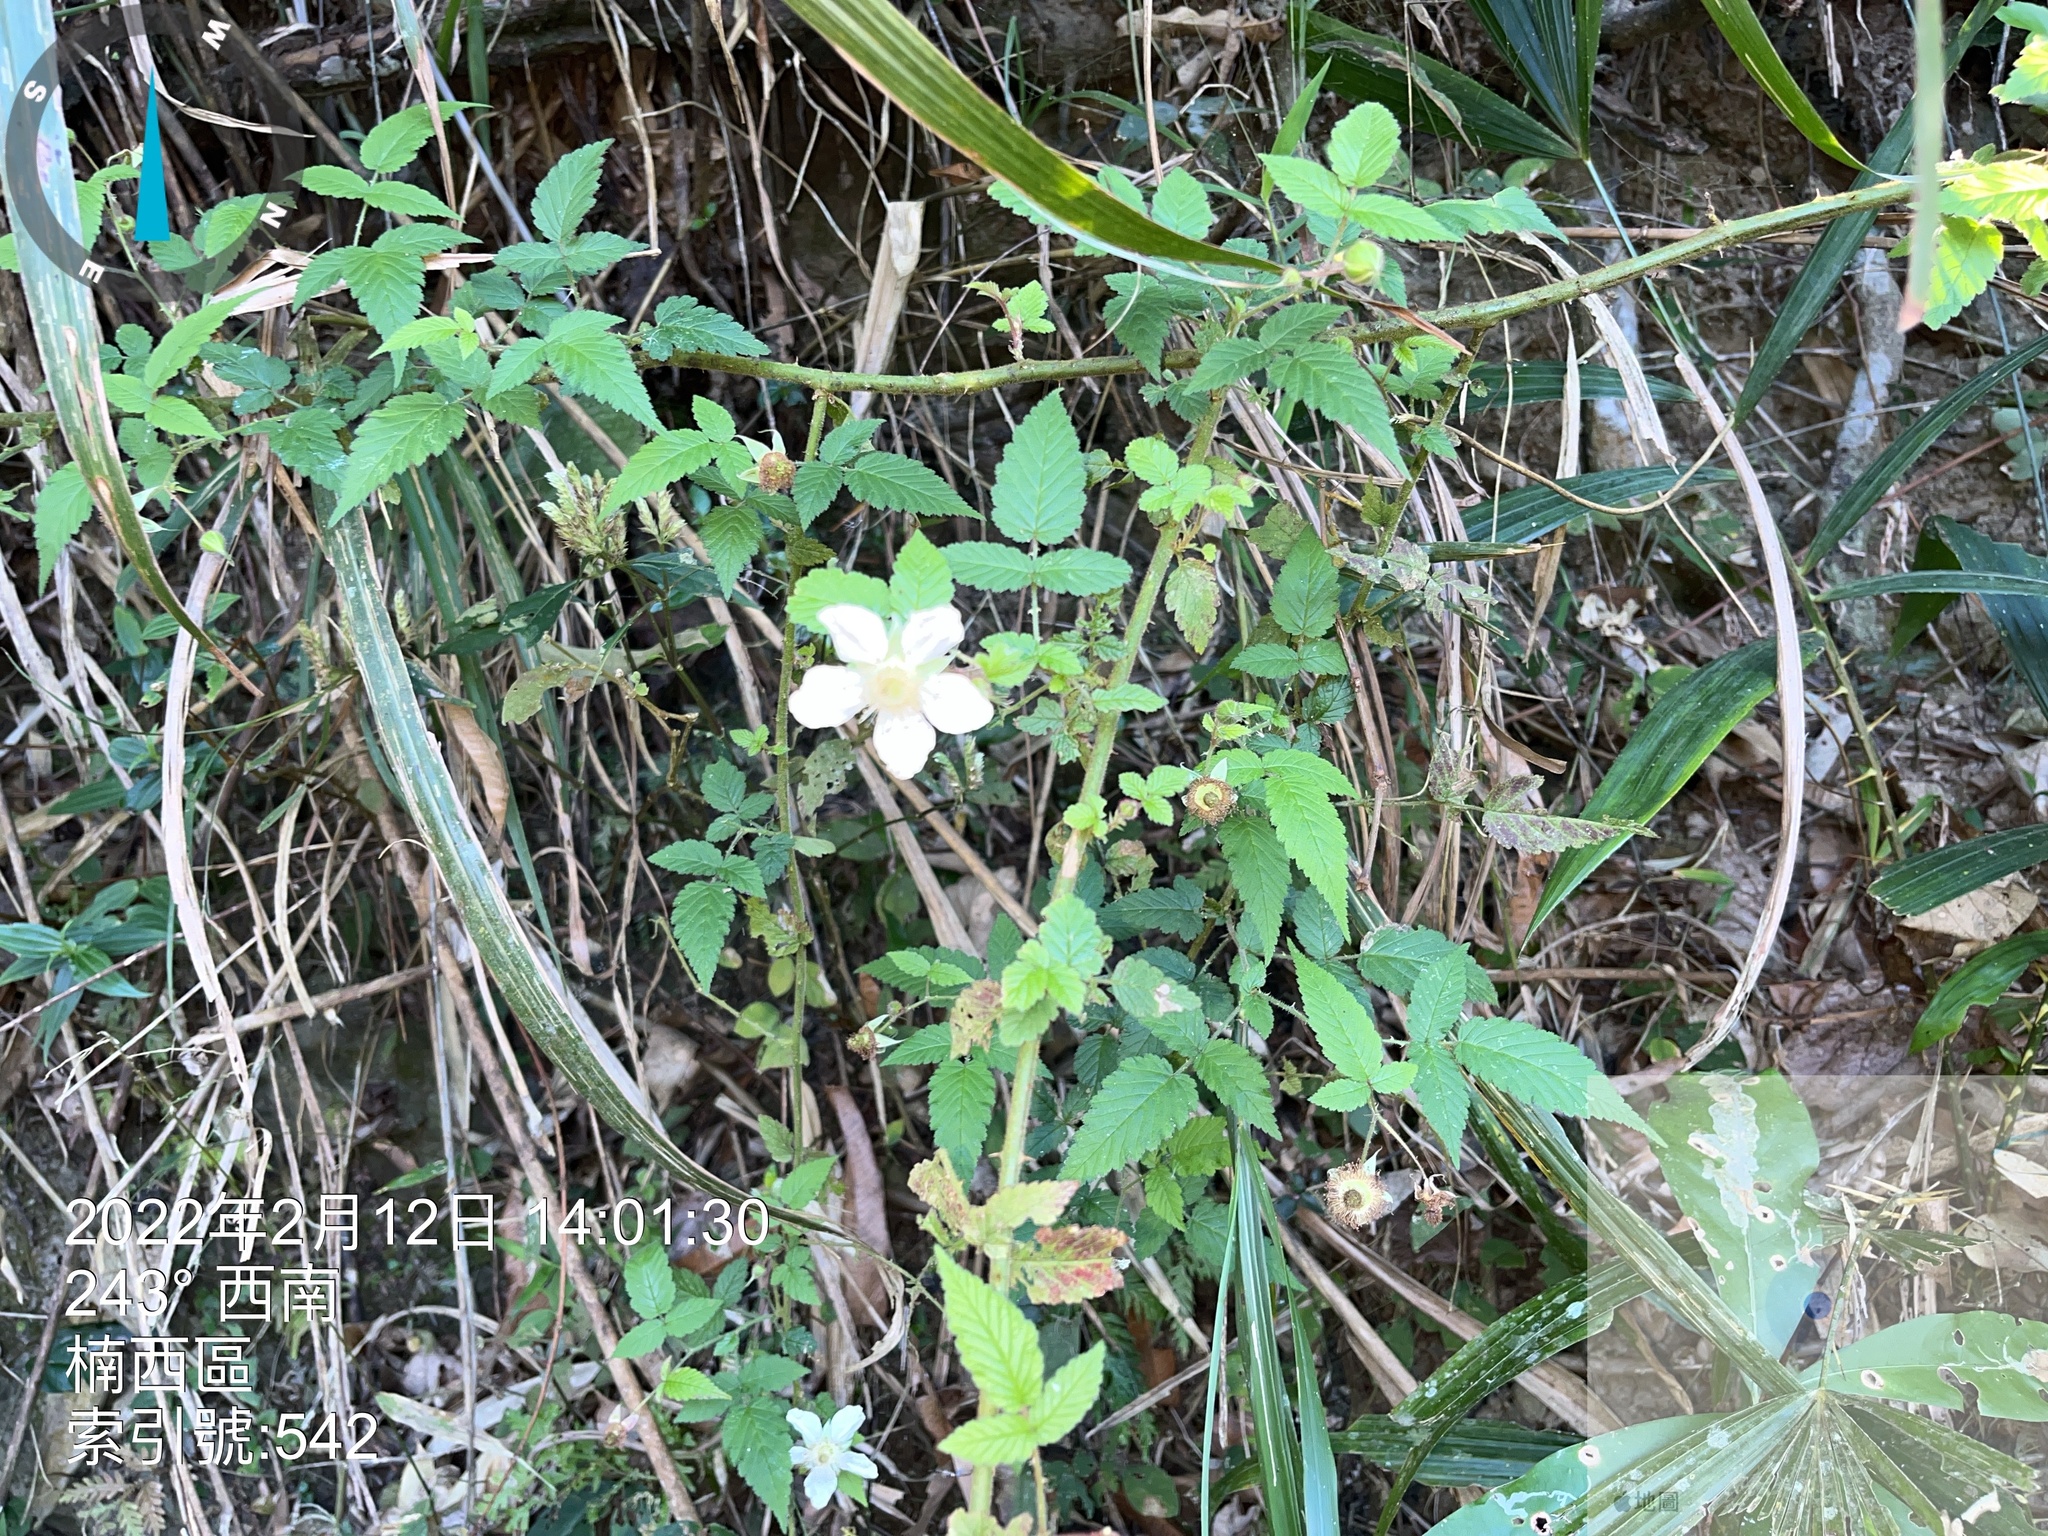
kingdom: Plantae
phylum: Tracheophyta
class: Magnoliopsida
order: Rosales
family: Rosaceae
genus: Rubus
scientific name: Rubus rosifolius
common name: Roseleaf raspberry
